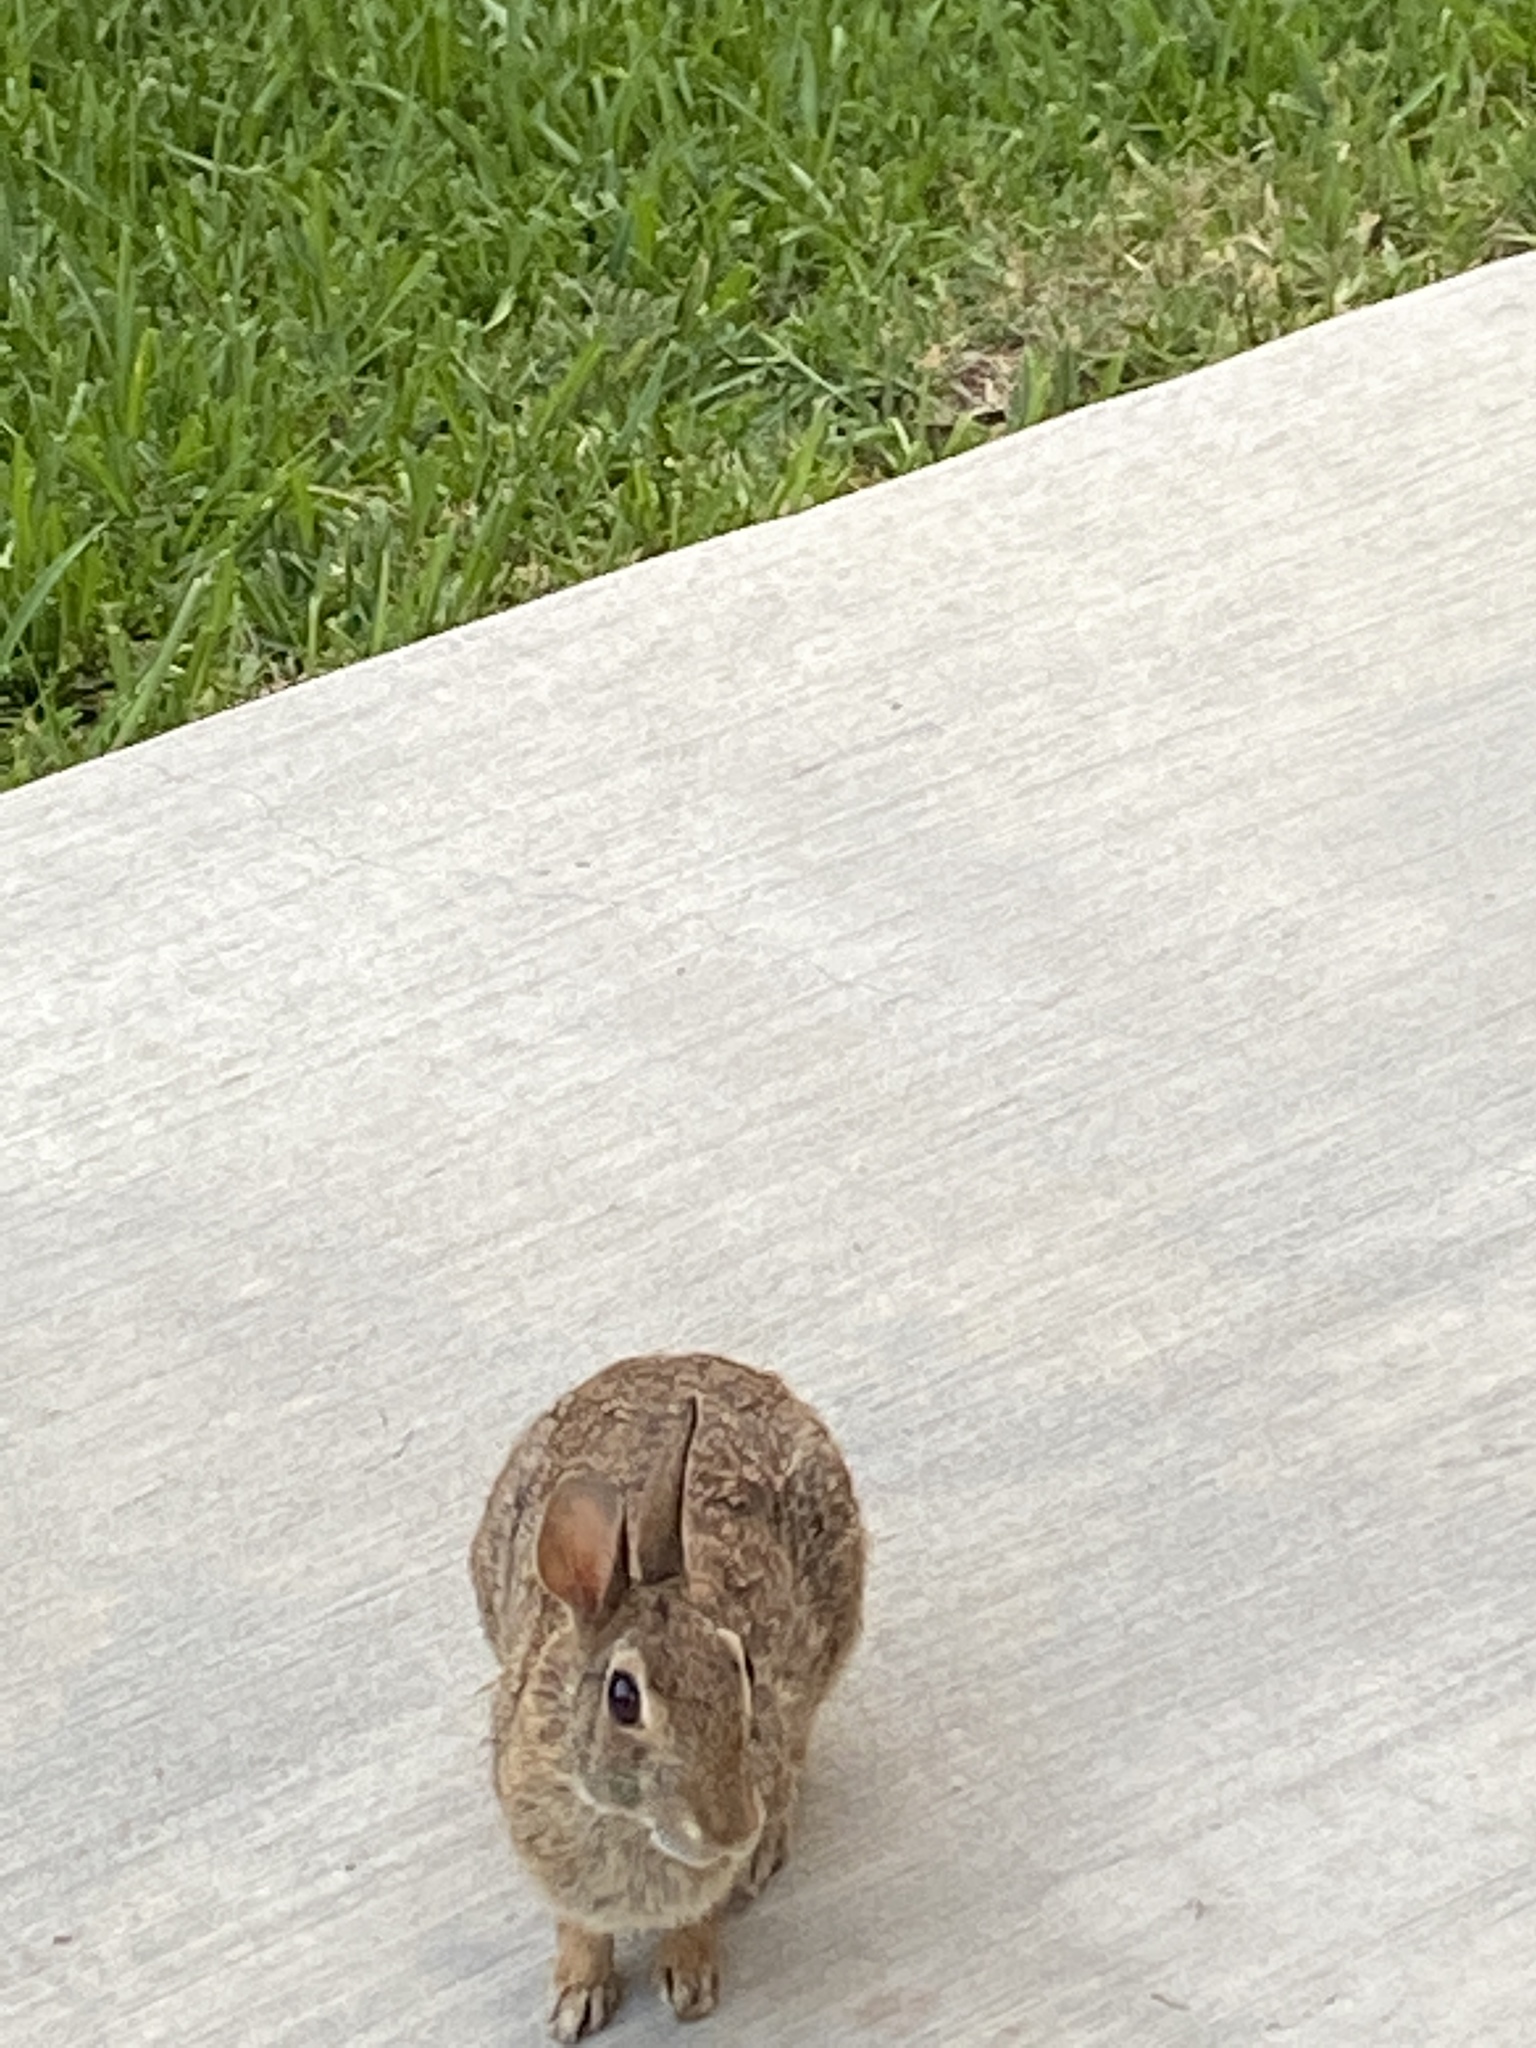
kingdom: Animalia
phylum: Chordata
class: Mammalia
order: Lagomorpha
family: Leporidae
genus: Sylvilagus
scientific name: Sylvilagus floridanus
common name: Eastern cottontail
